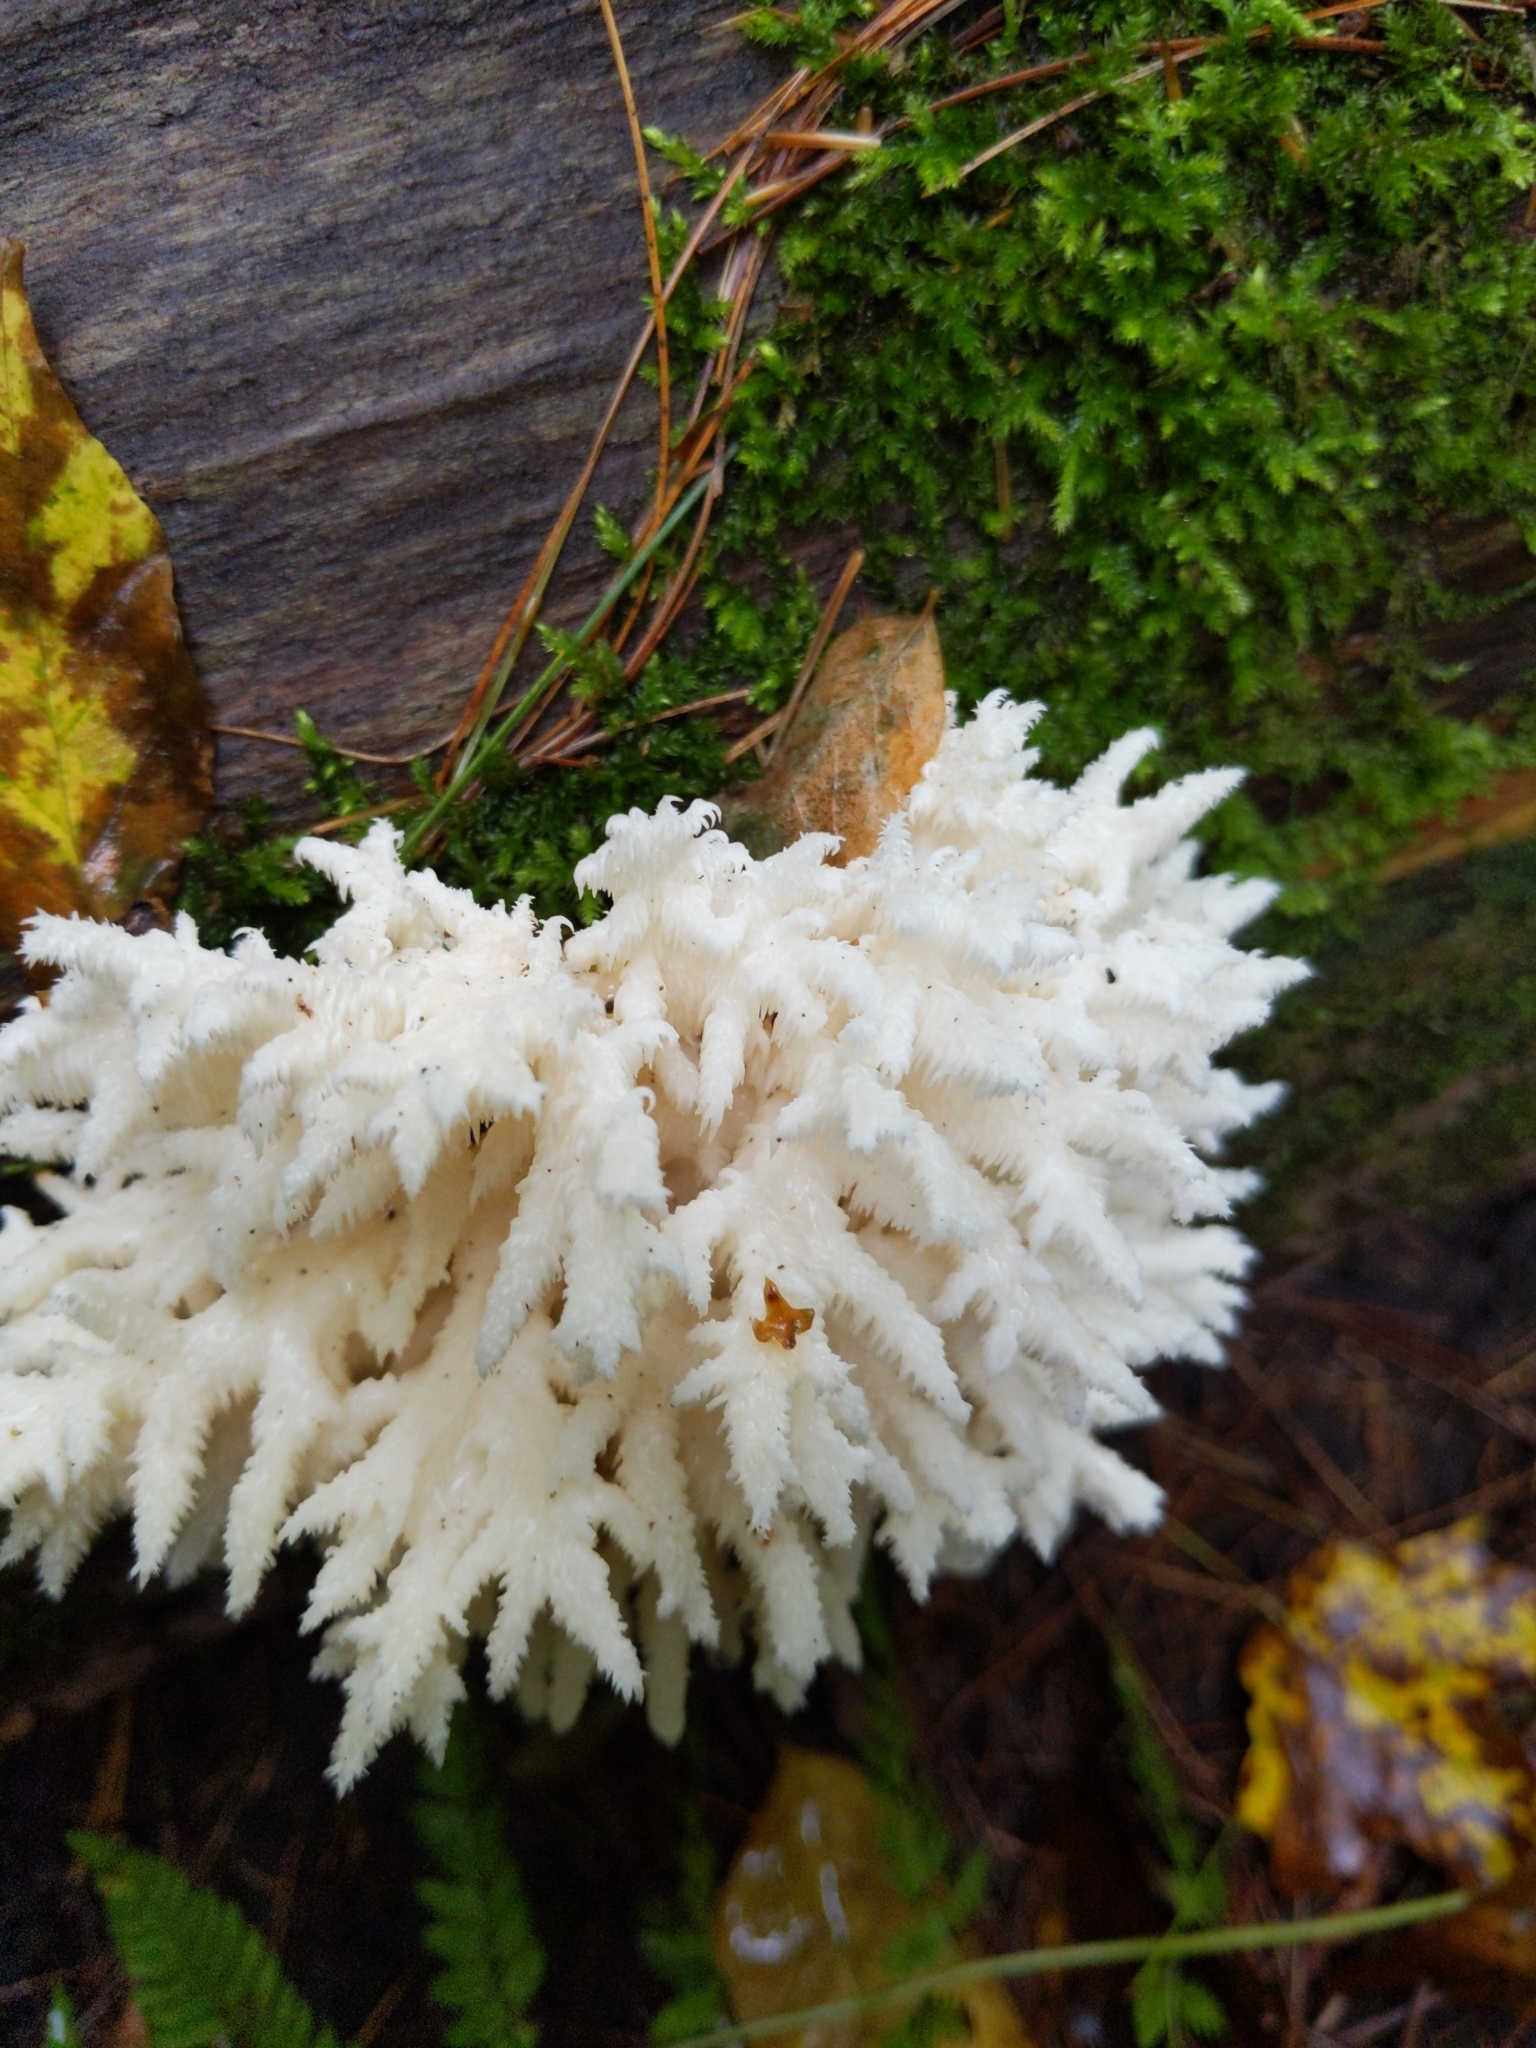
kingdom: Fungi
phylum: Basidiomycota
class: Agaricomycetes
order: Russulales
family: Hericiaceae
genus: Hericium
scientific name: Hericium coralloides
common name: Coral tooth
